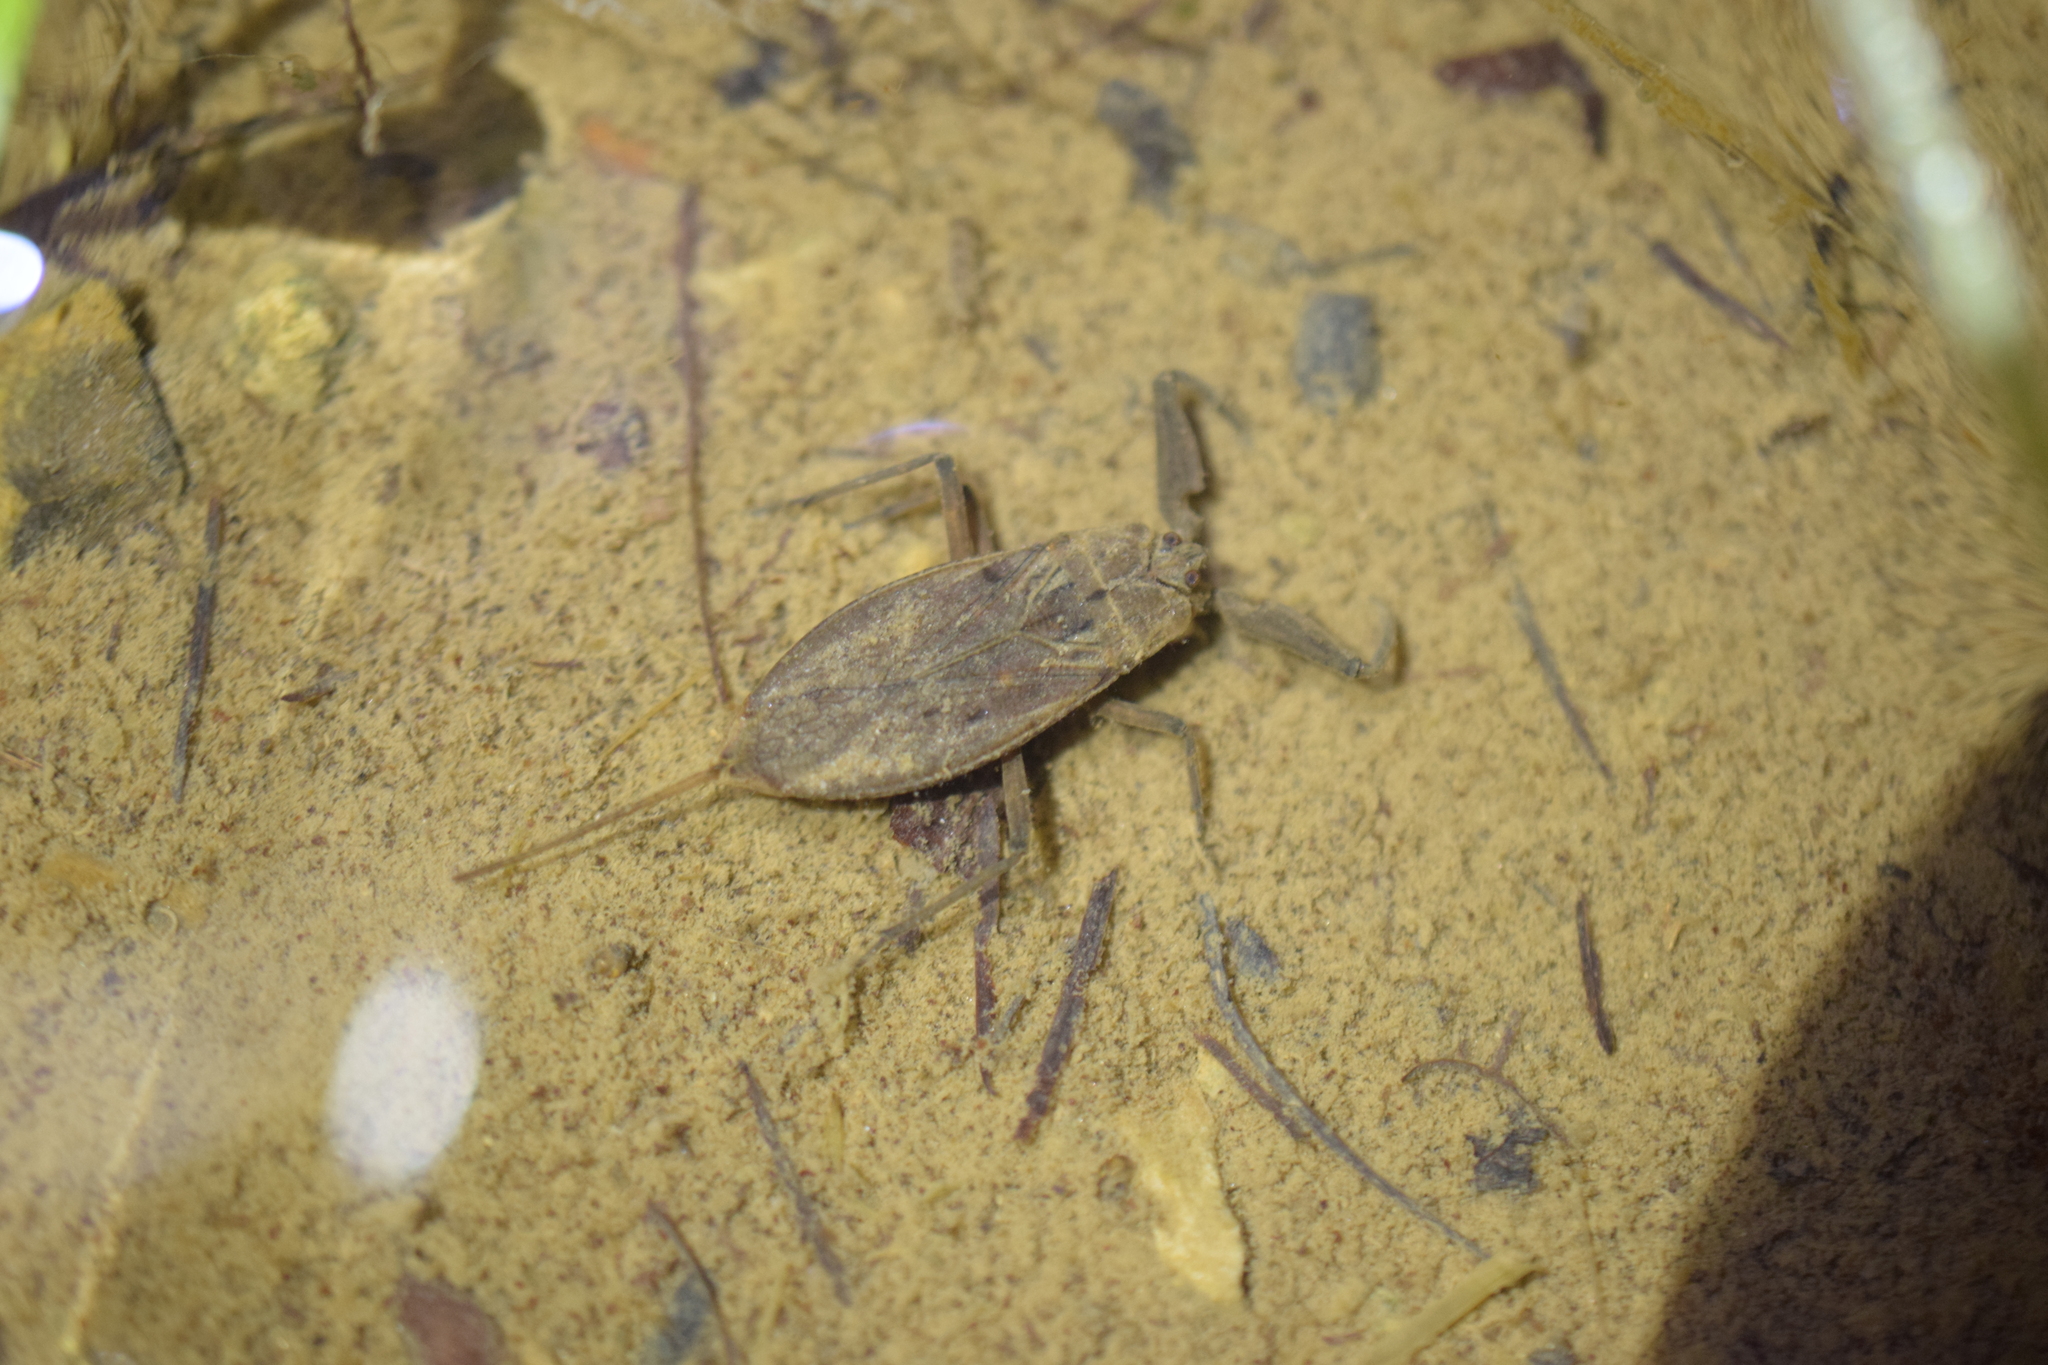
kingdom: Animalia
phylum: Arthropoda
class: Insecta
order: Hemiptera
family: Nepidae
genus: Nepa
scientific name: Nepa cinerea
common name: Water scorpion
